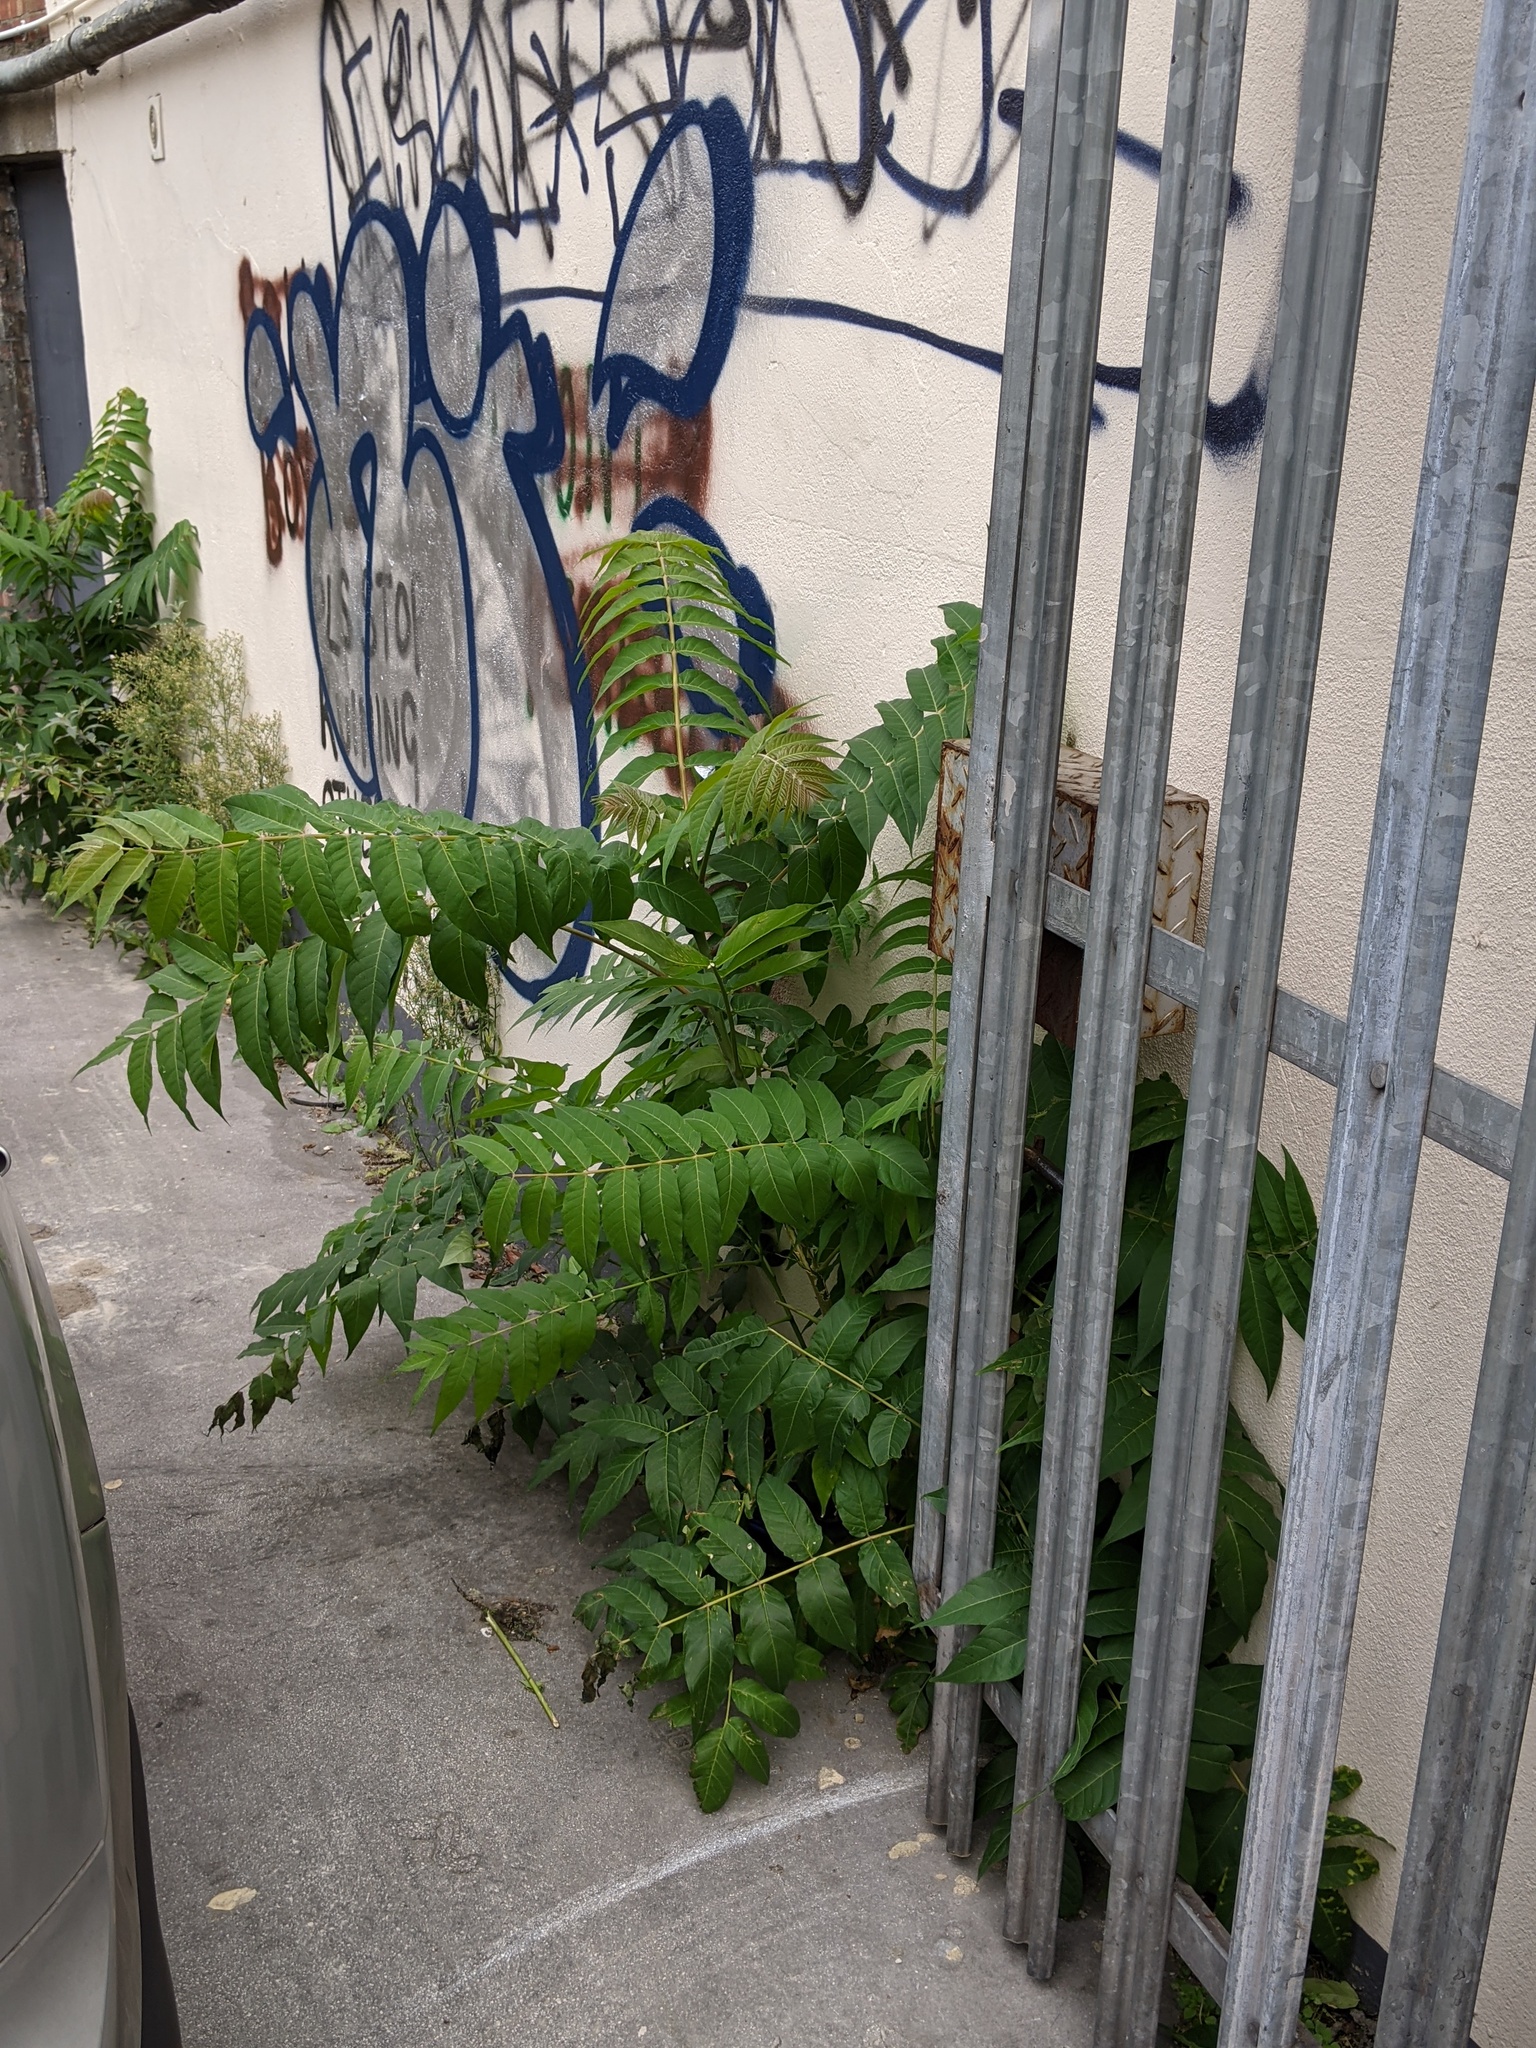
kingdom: Plantae
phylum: Tracheophyta
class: Magnoliopsida
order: Sapindales
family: Simaroubaceae
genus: Ailanthus
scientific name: Ailanthus altissima
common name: Tree-of-heaven
